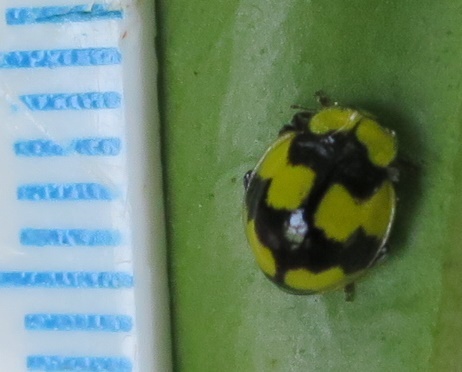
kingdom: Animalia
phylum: Arthropoda
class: Insecta
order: Coleoptera
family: Coccinellidae
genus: Illeis
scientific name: Illeis galbula
